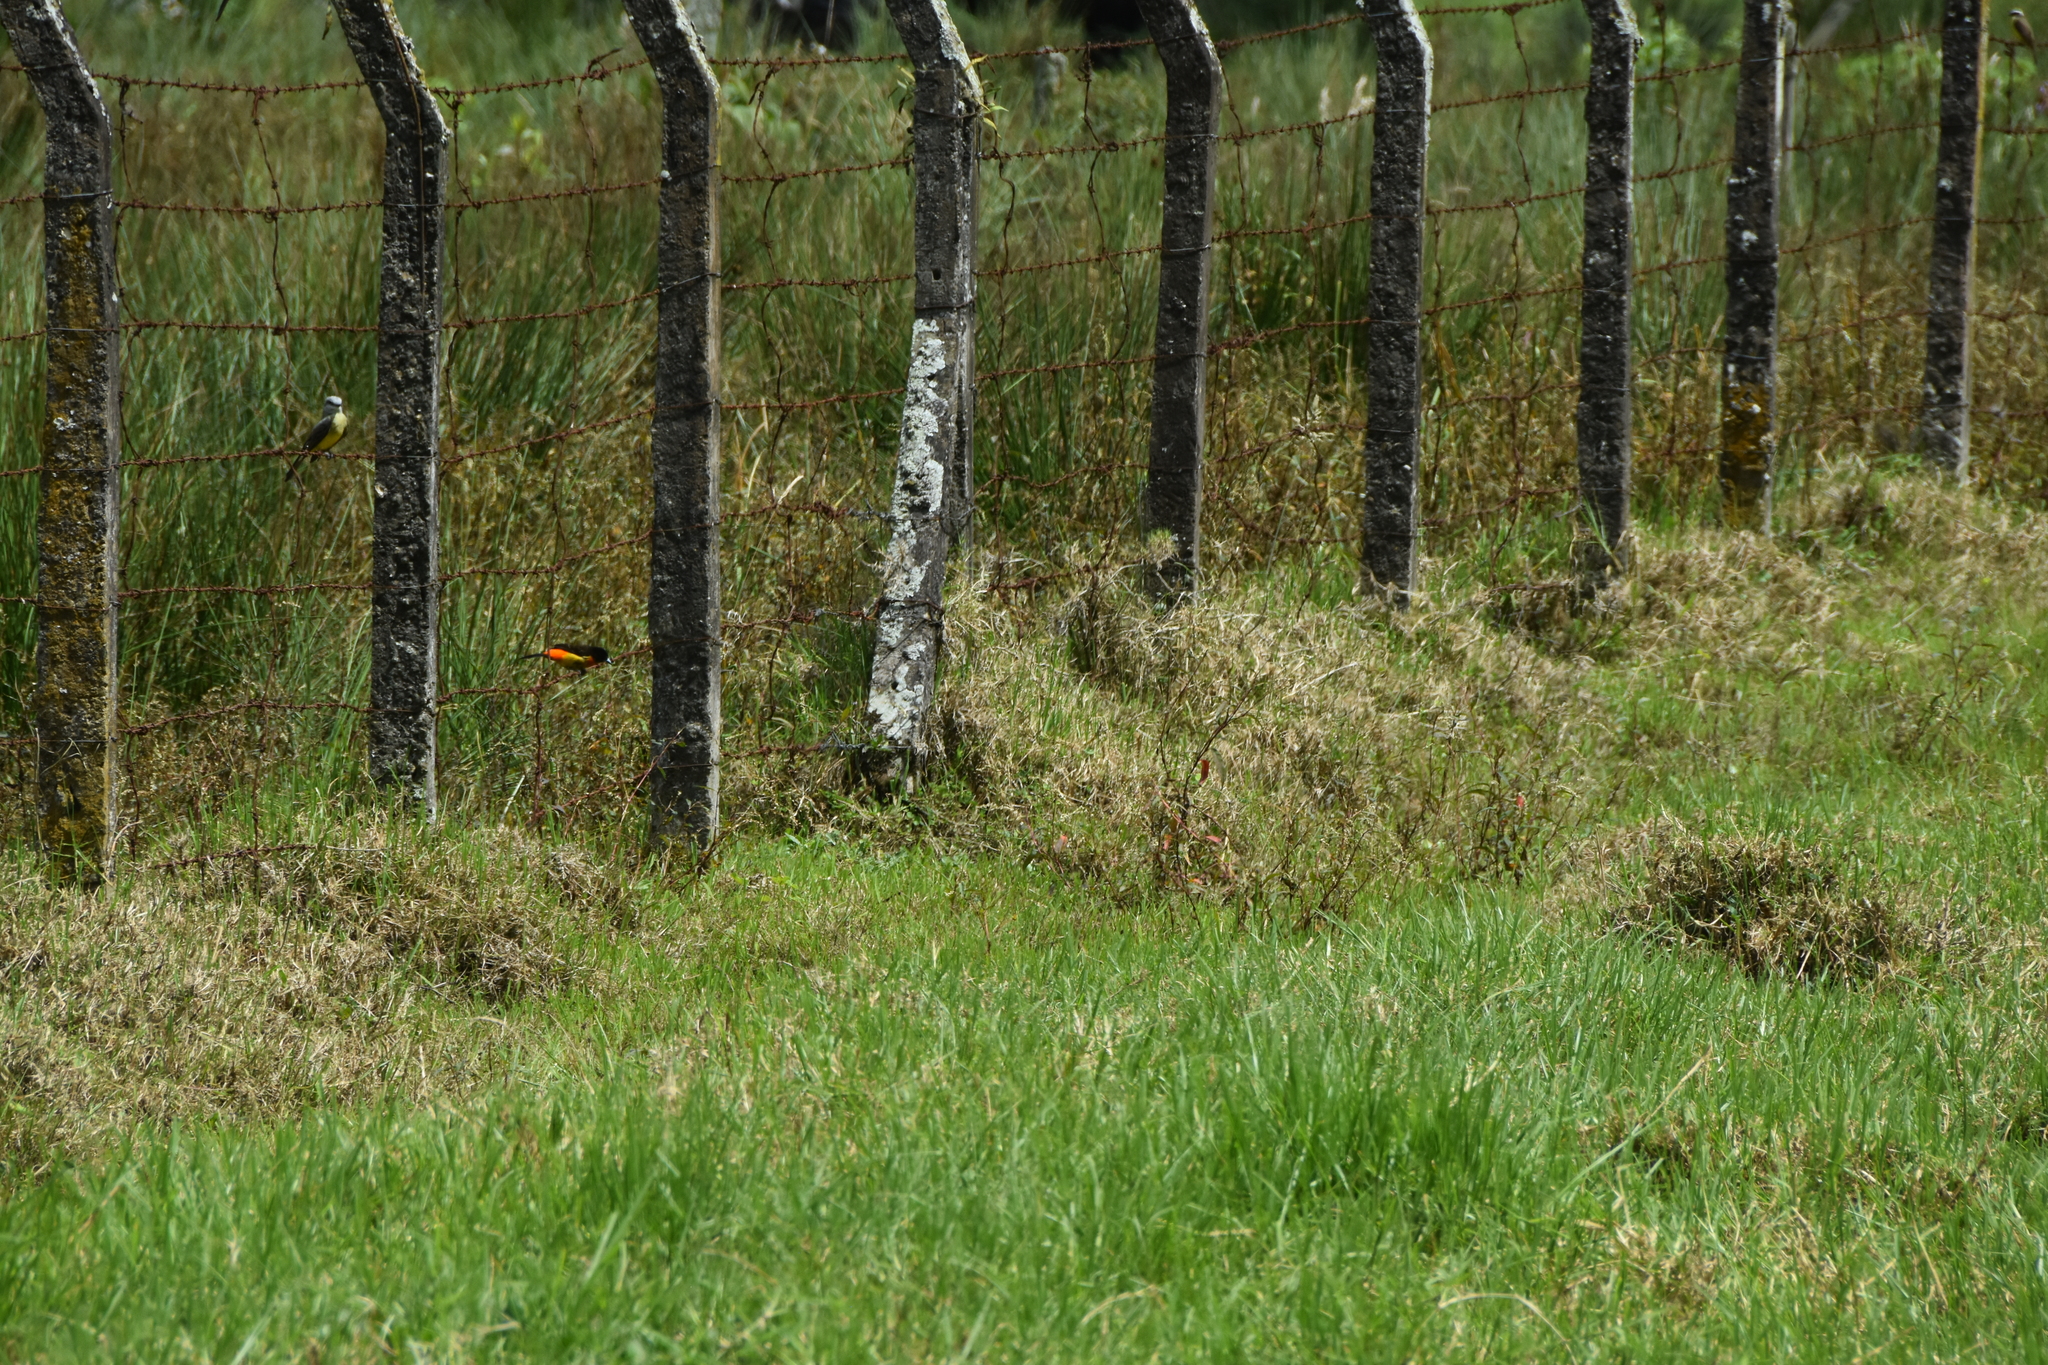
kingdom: Animalia
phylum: Chordata
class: Aves
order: Passeriformes
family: Thraupidae
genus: Ramphocelus
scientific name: Ramphocelus flammigerus
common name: Flame-rumped tanager
